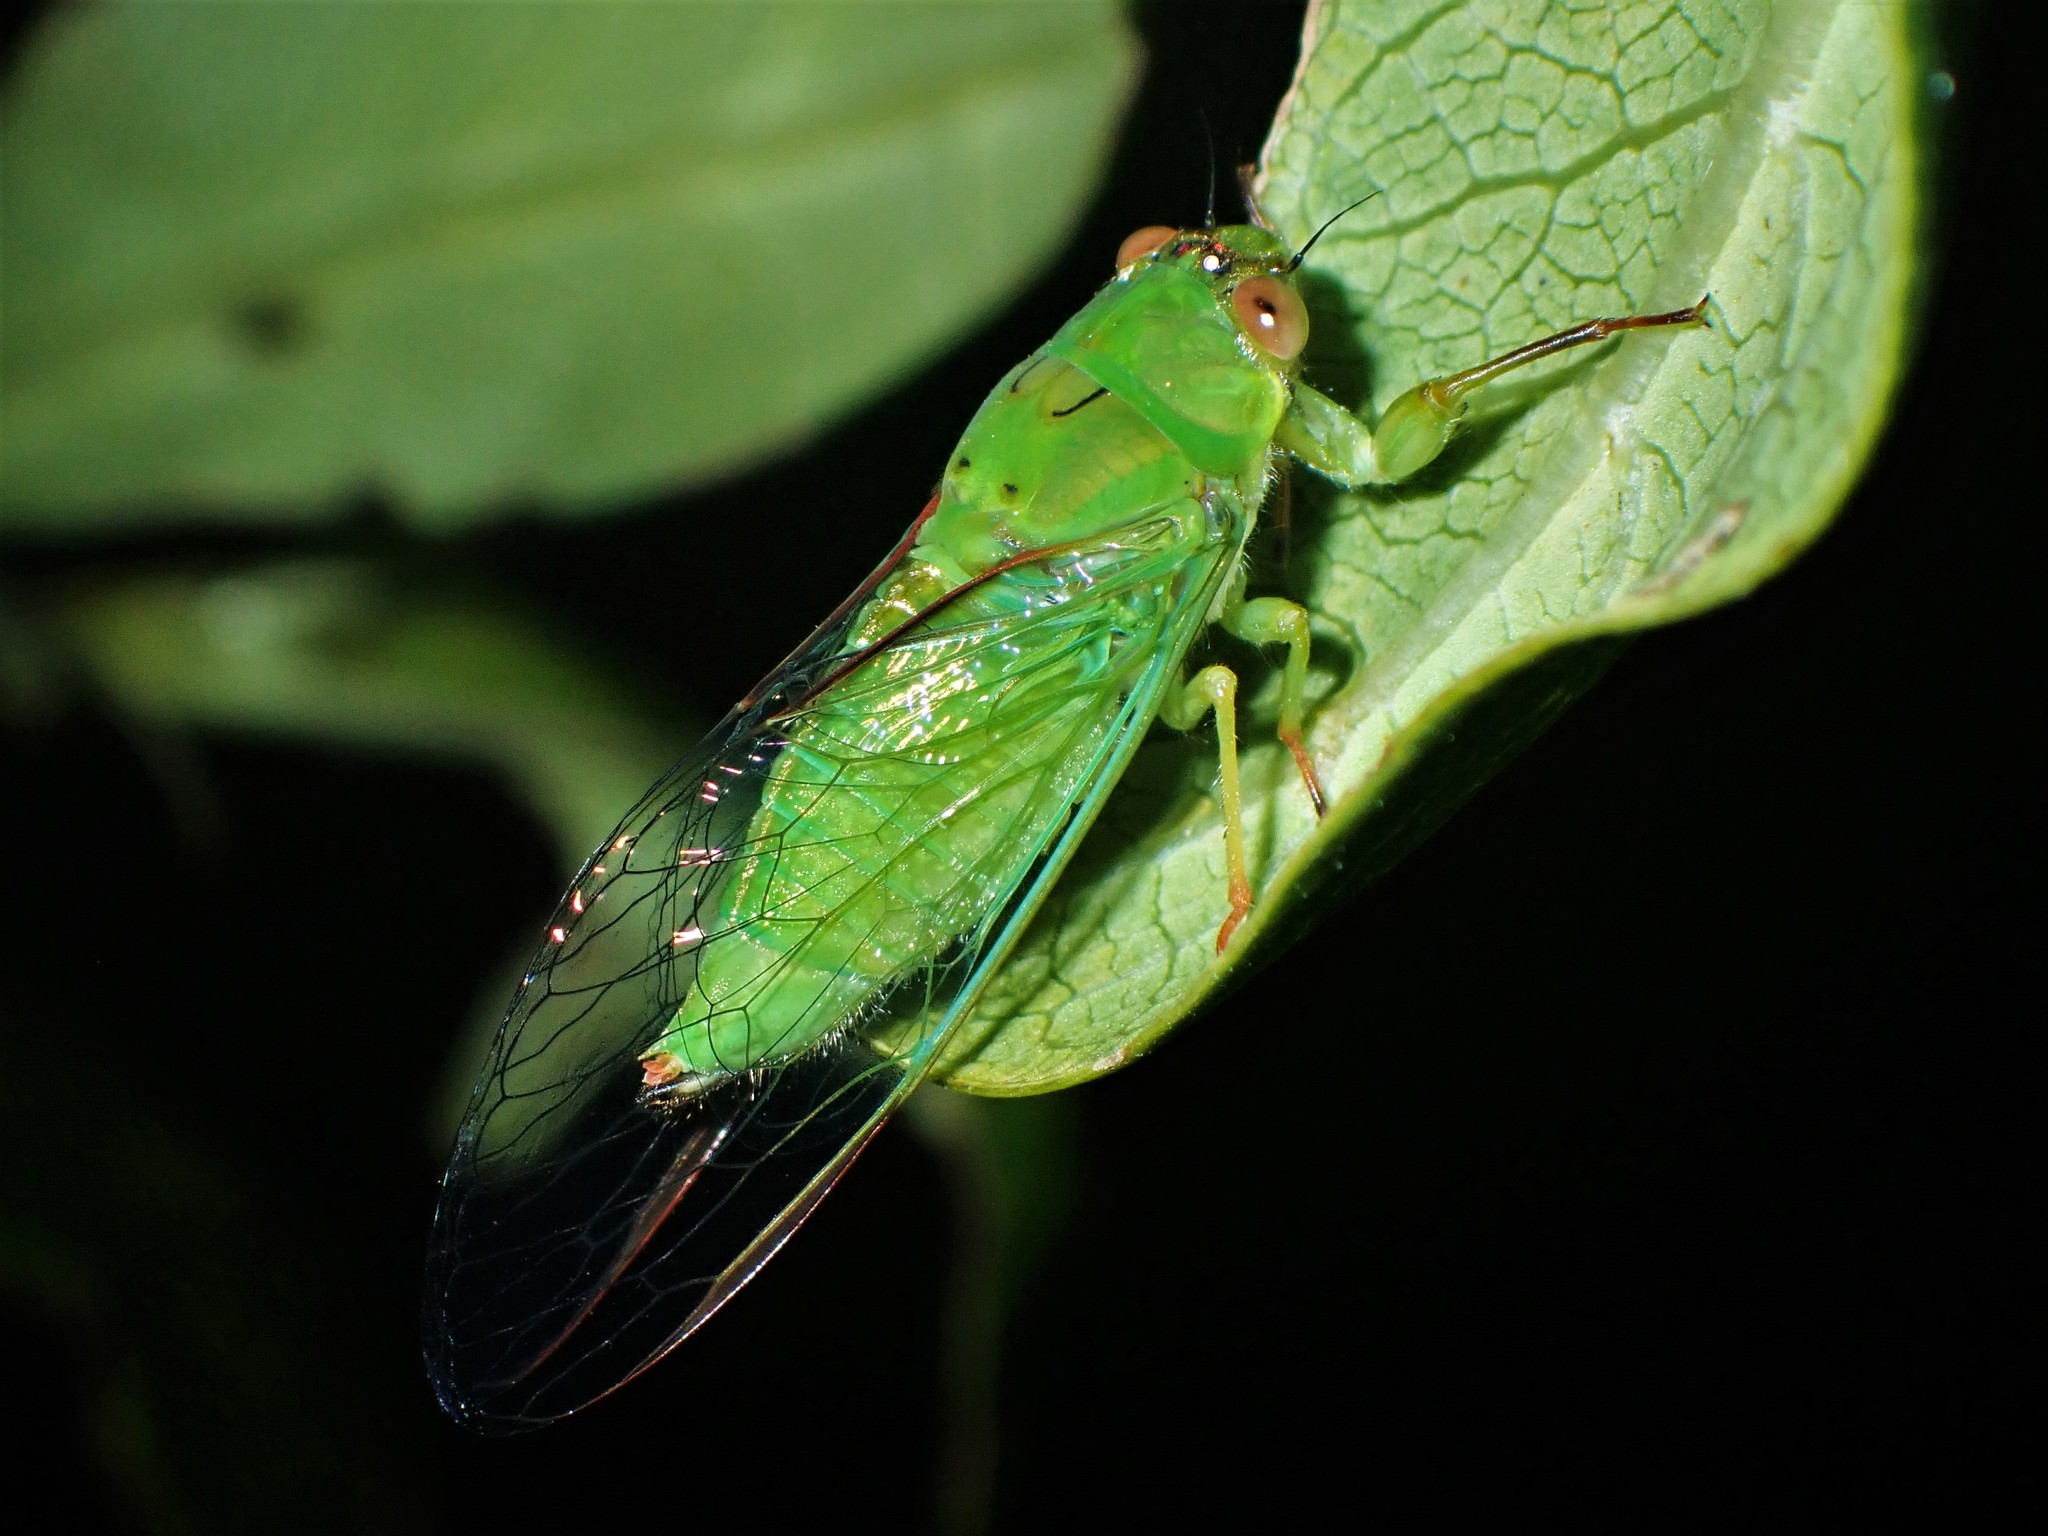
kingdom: Animalia
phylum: Arthropoda
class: Insecta
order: Hemiptera
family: Cicadidae
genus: Kikihia
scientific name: Kikihia ochrina
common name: April green cicada
